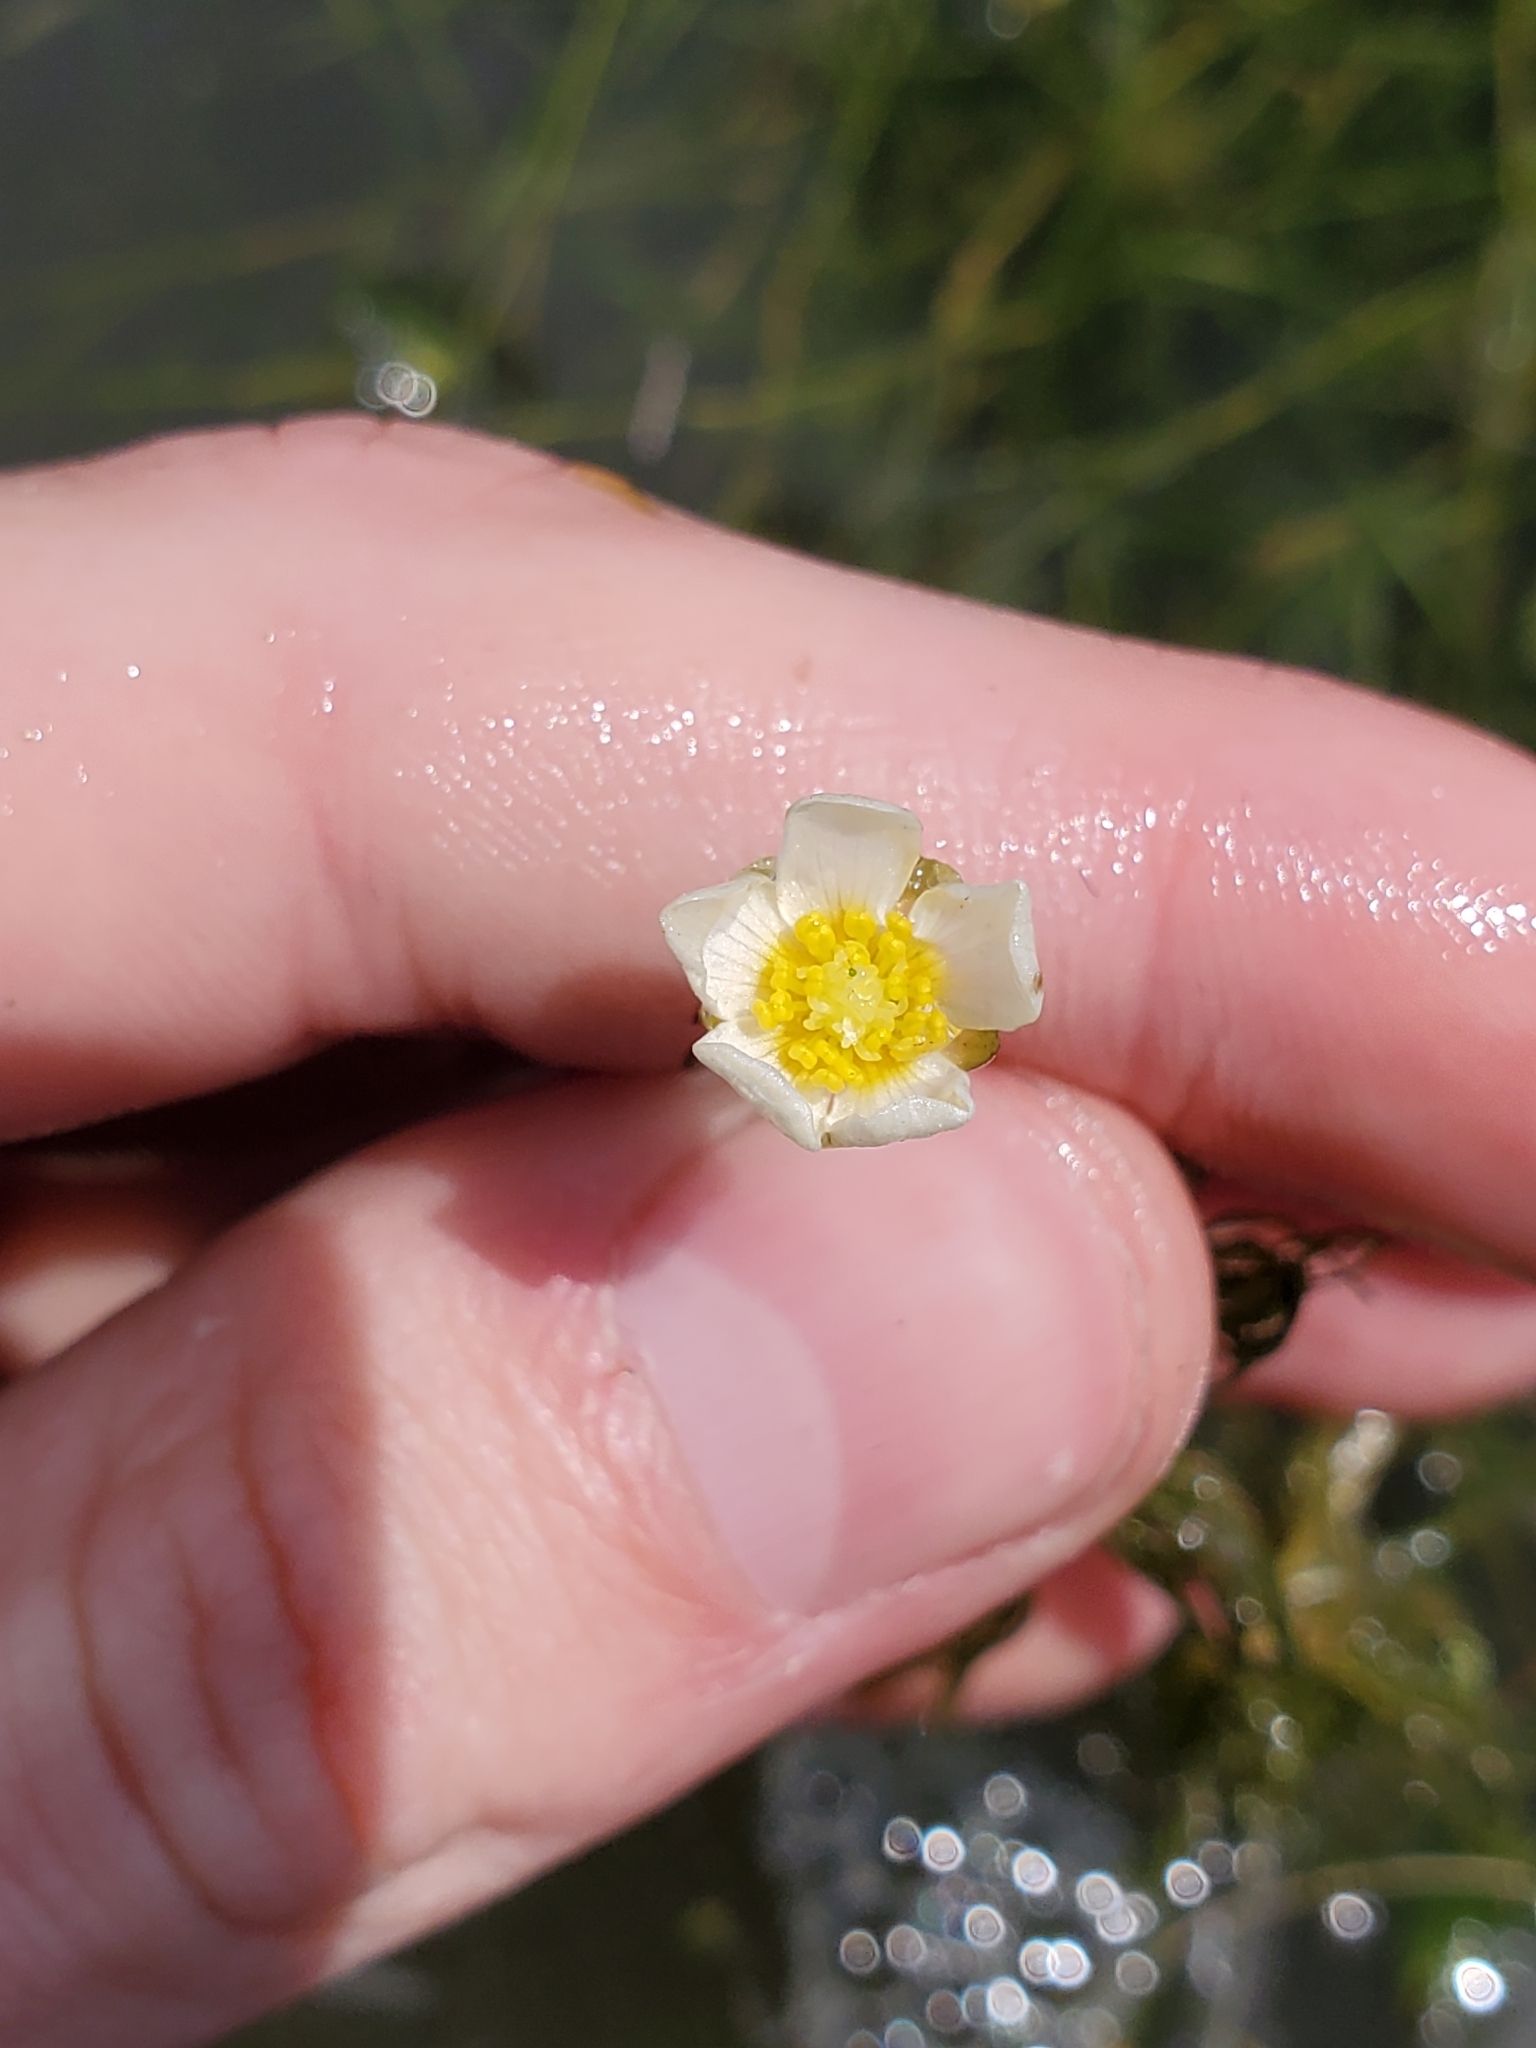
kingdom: Plantae
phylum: Tracheophyta
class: Magnoliopsida
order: Ranunculales
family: Ranunculaceae
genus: Ranunculus
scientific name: Ranunculus aquatilis
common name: Common water-crowfoot
